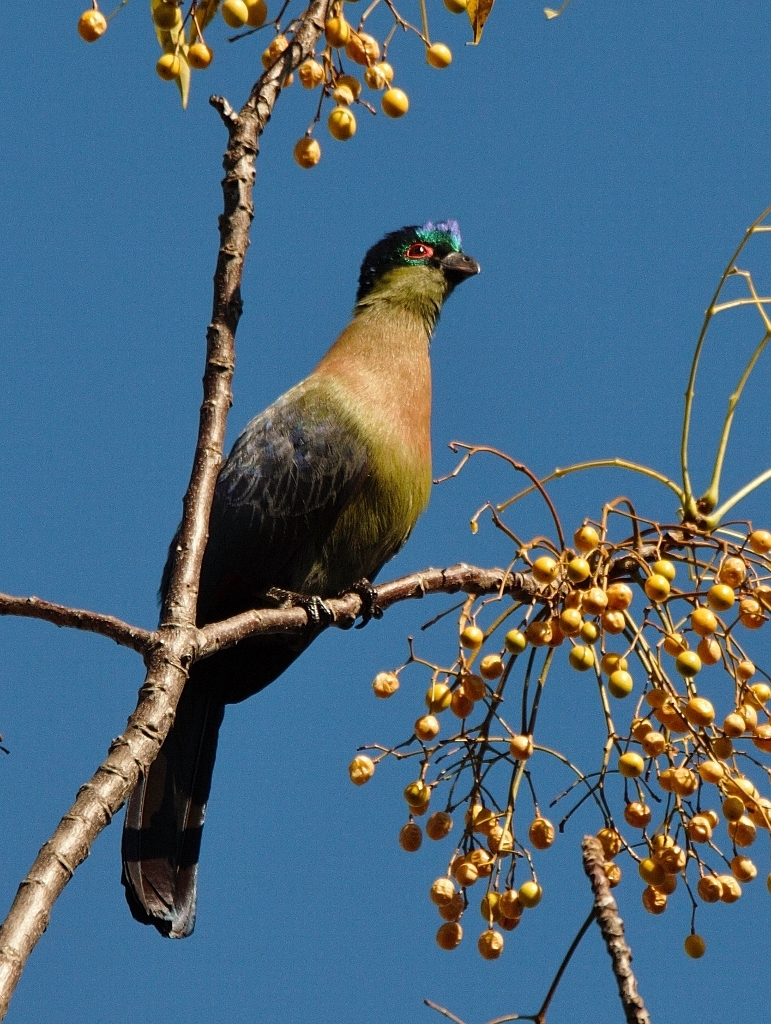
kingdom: Animalia
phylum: Chordata
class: Aves
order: Musophagiformes
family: Musophagidae
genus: Tauraco
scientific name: Tauraco porphyreolophus
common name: Purple-crested turaco
